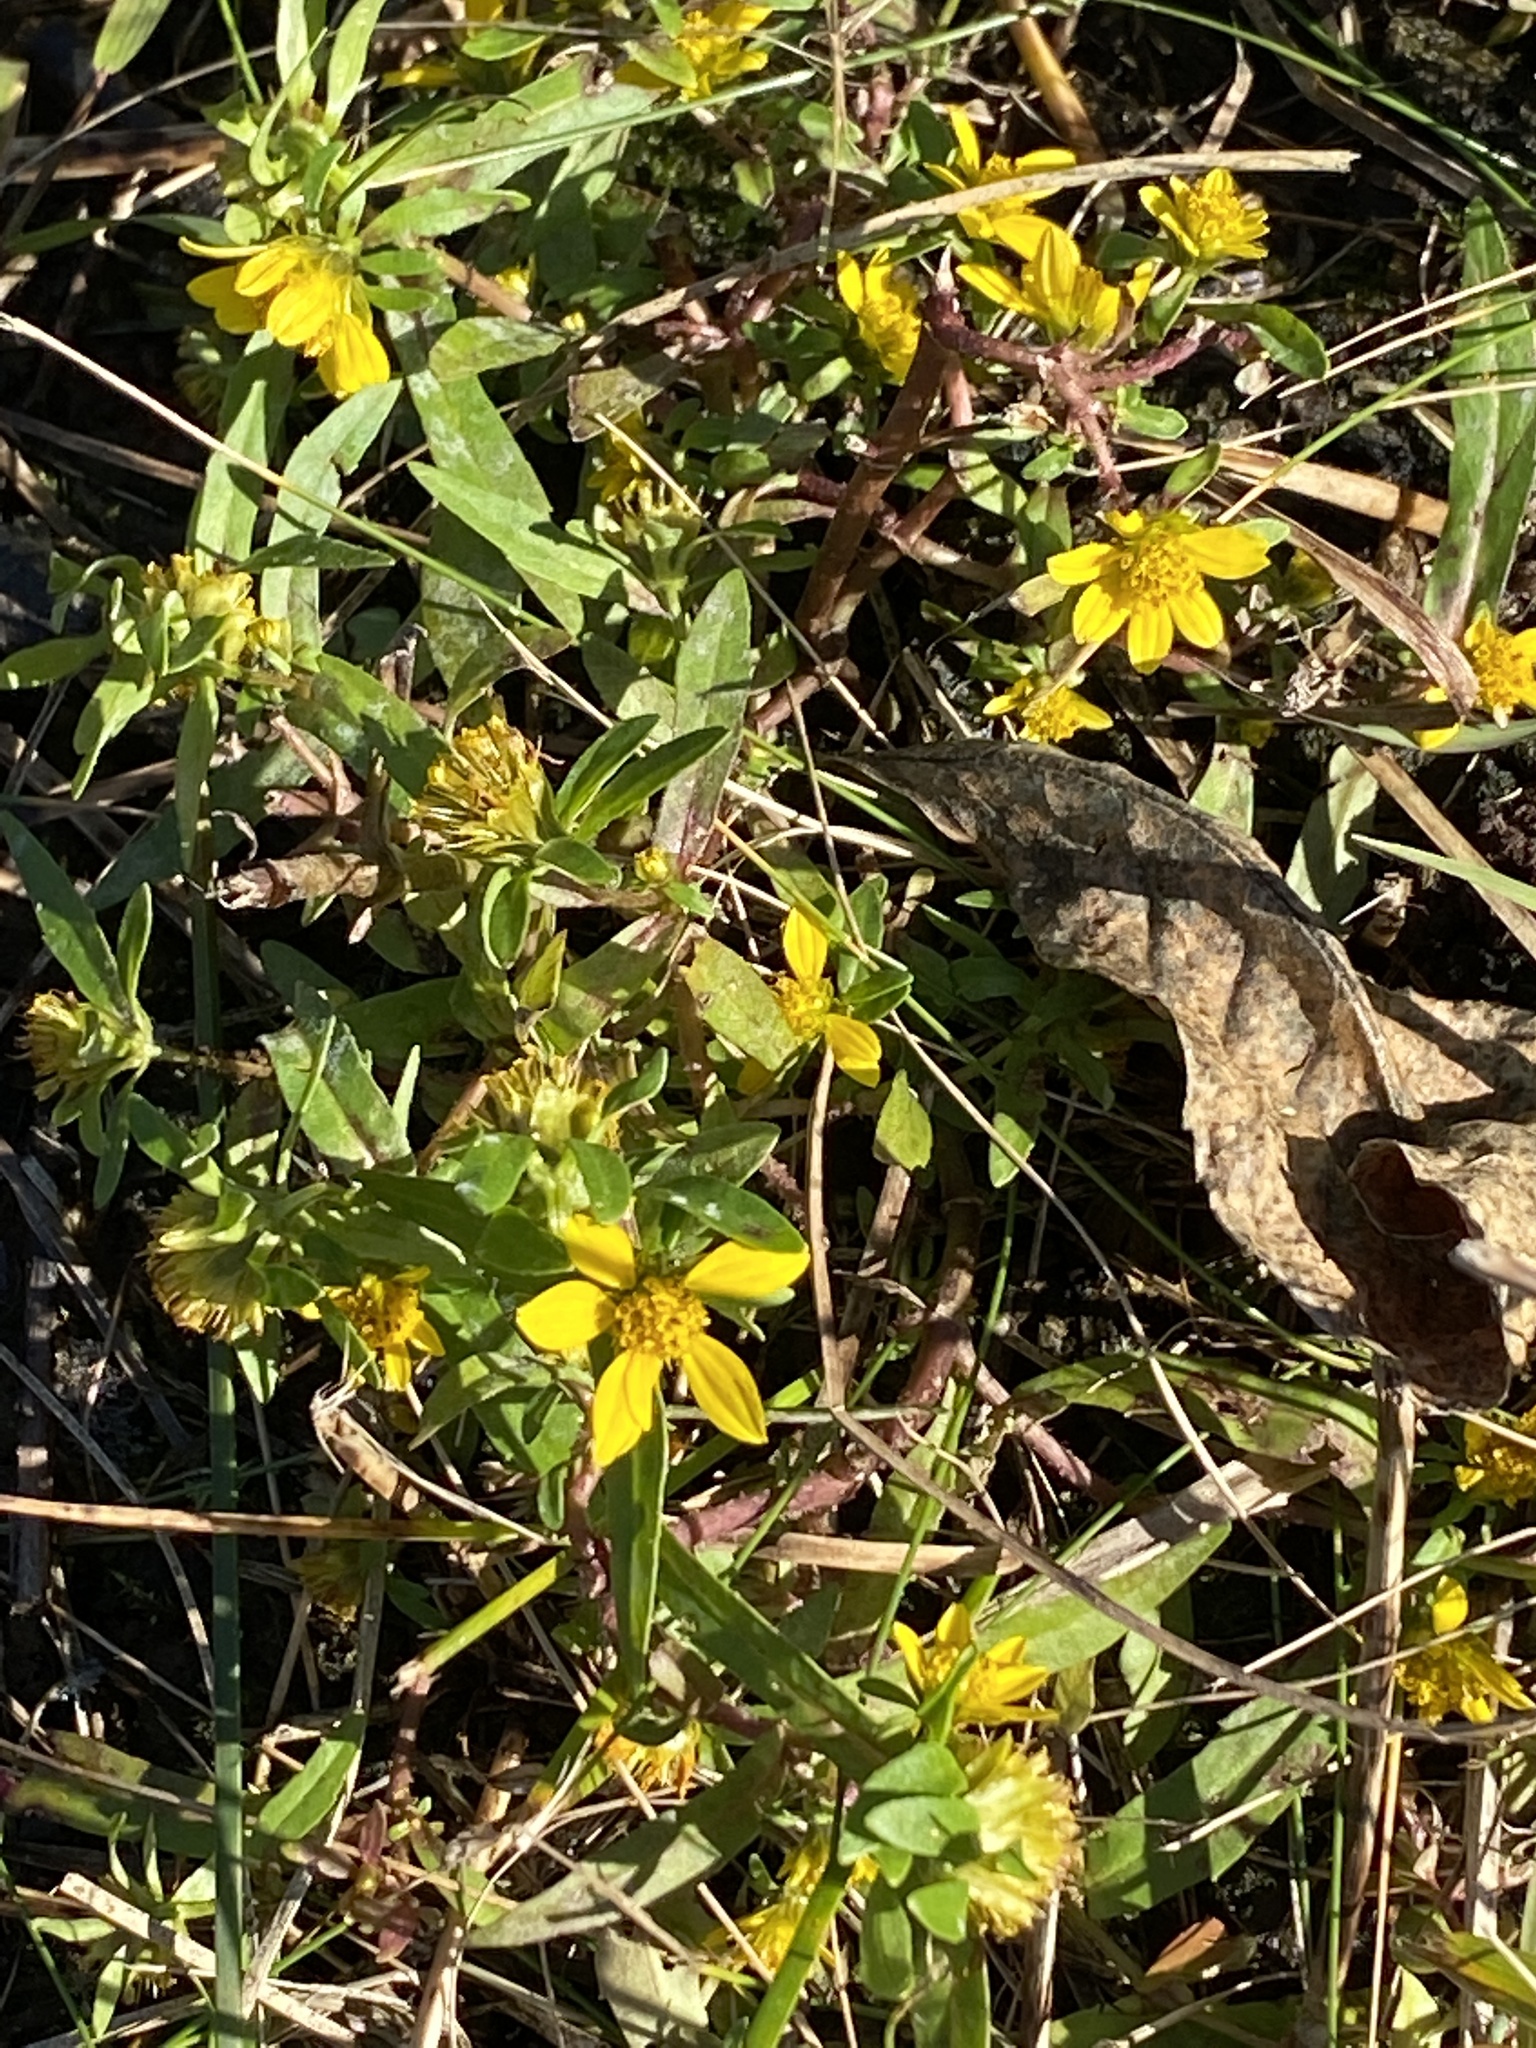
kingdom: Plantae
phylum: Tracheophyta
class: Magnoliopsida
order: Asterales
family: Asteraceae
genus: Bidens
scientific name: Bidens cernua
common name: Nodding bur-marigold
